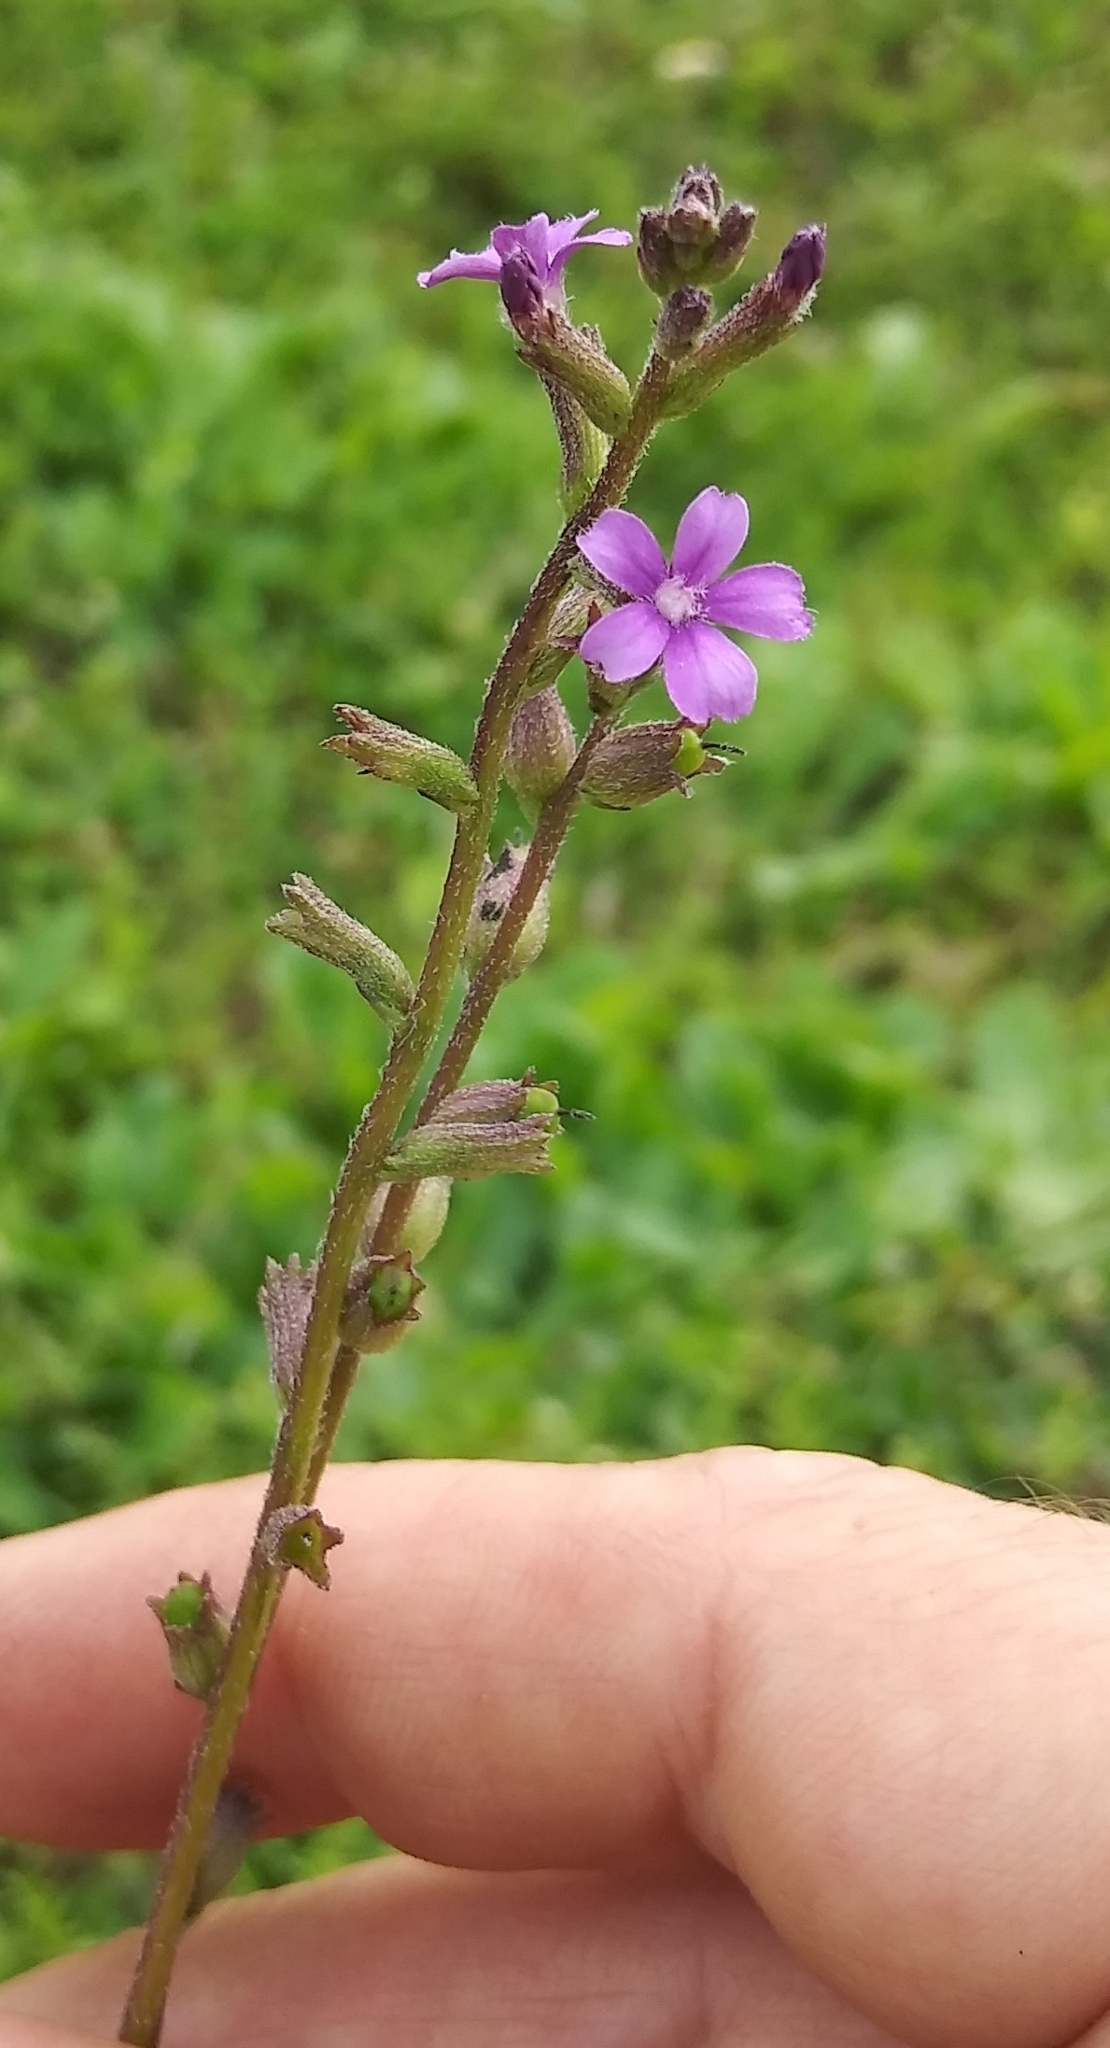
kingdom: Plantae
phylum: Tracheophyta
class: Magnoliopsida
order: Lamiales
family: Orobanchaceae
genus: Buchnera
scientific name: Buchnera floridana
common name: Florida bluehearts
